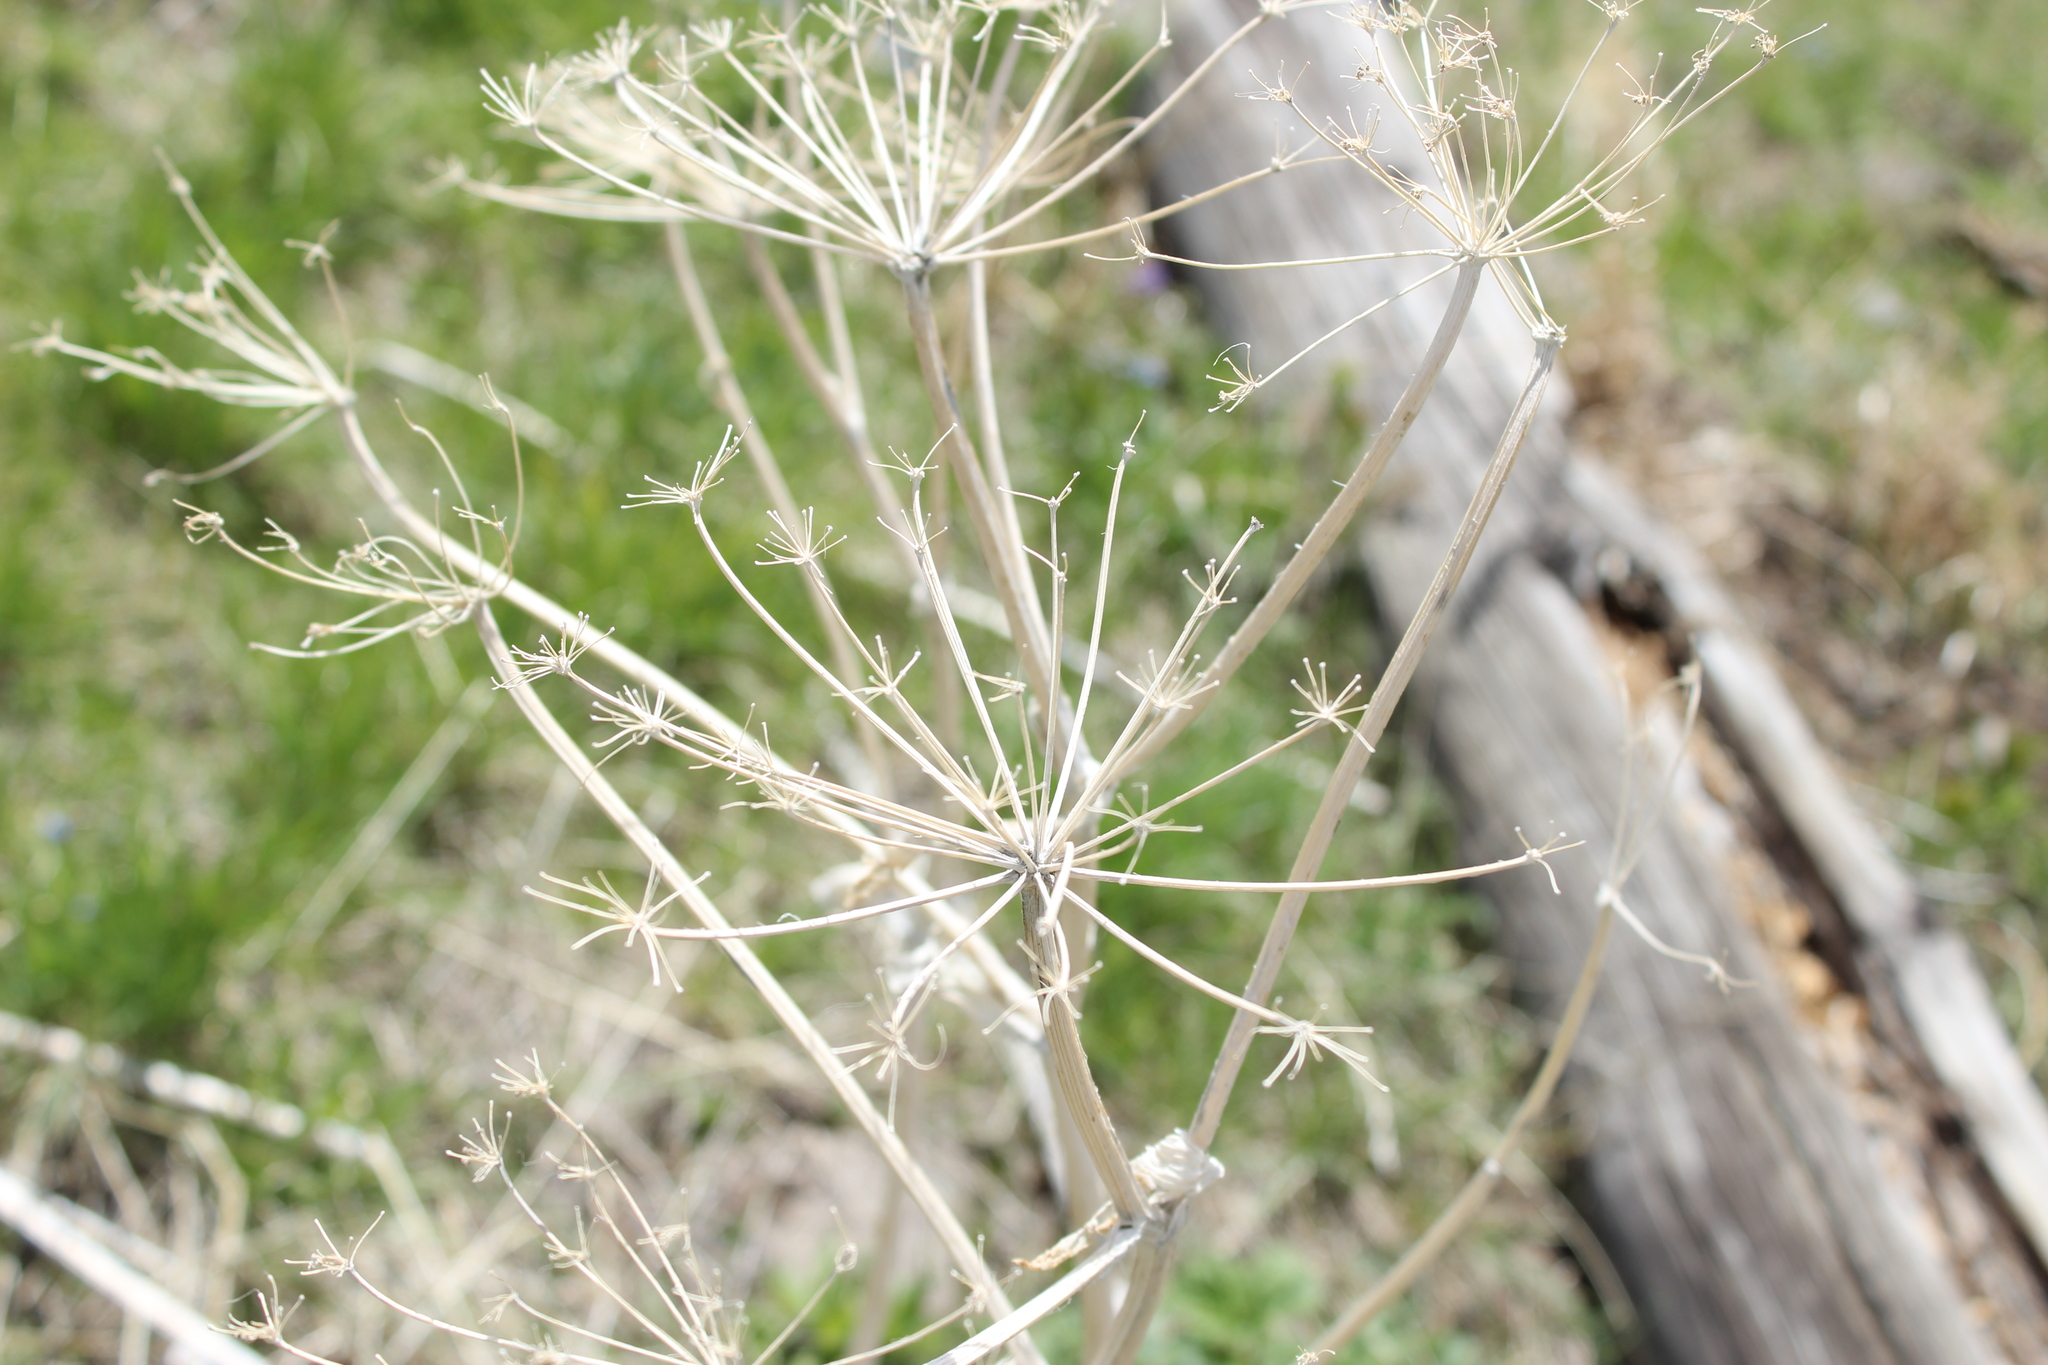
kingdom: Plantae
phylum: Tracheophyta
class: Magnoliopsida
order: Apiales
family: Apiaceae
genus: Heracleum
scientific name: Heracleum maximum
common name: American cow parsnip
